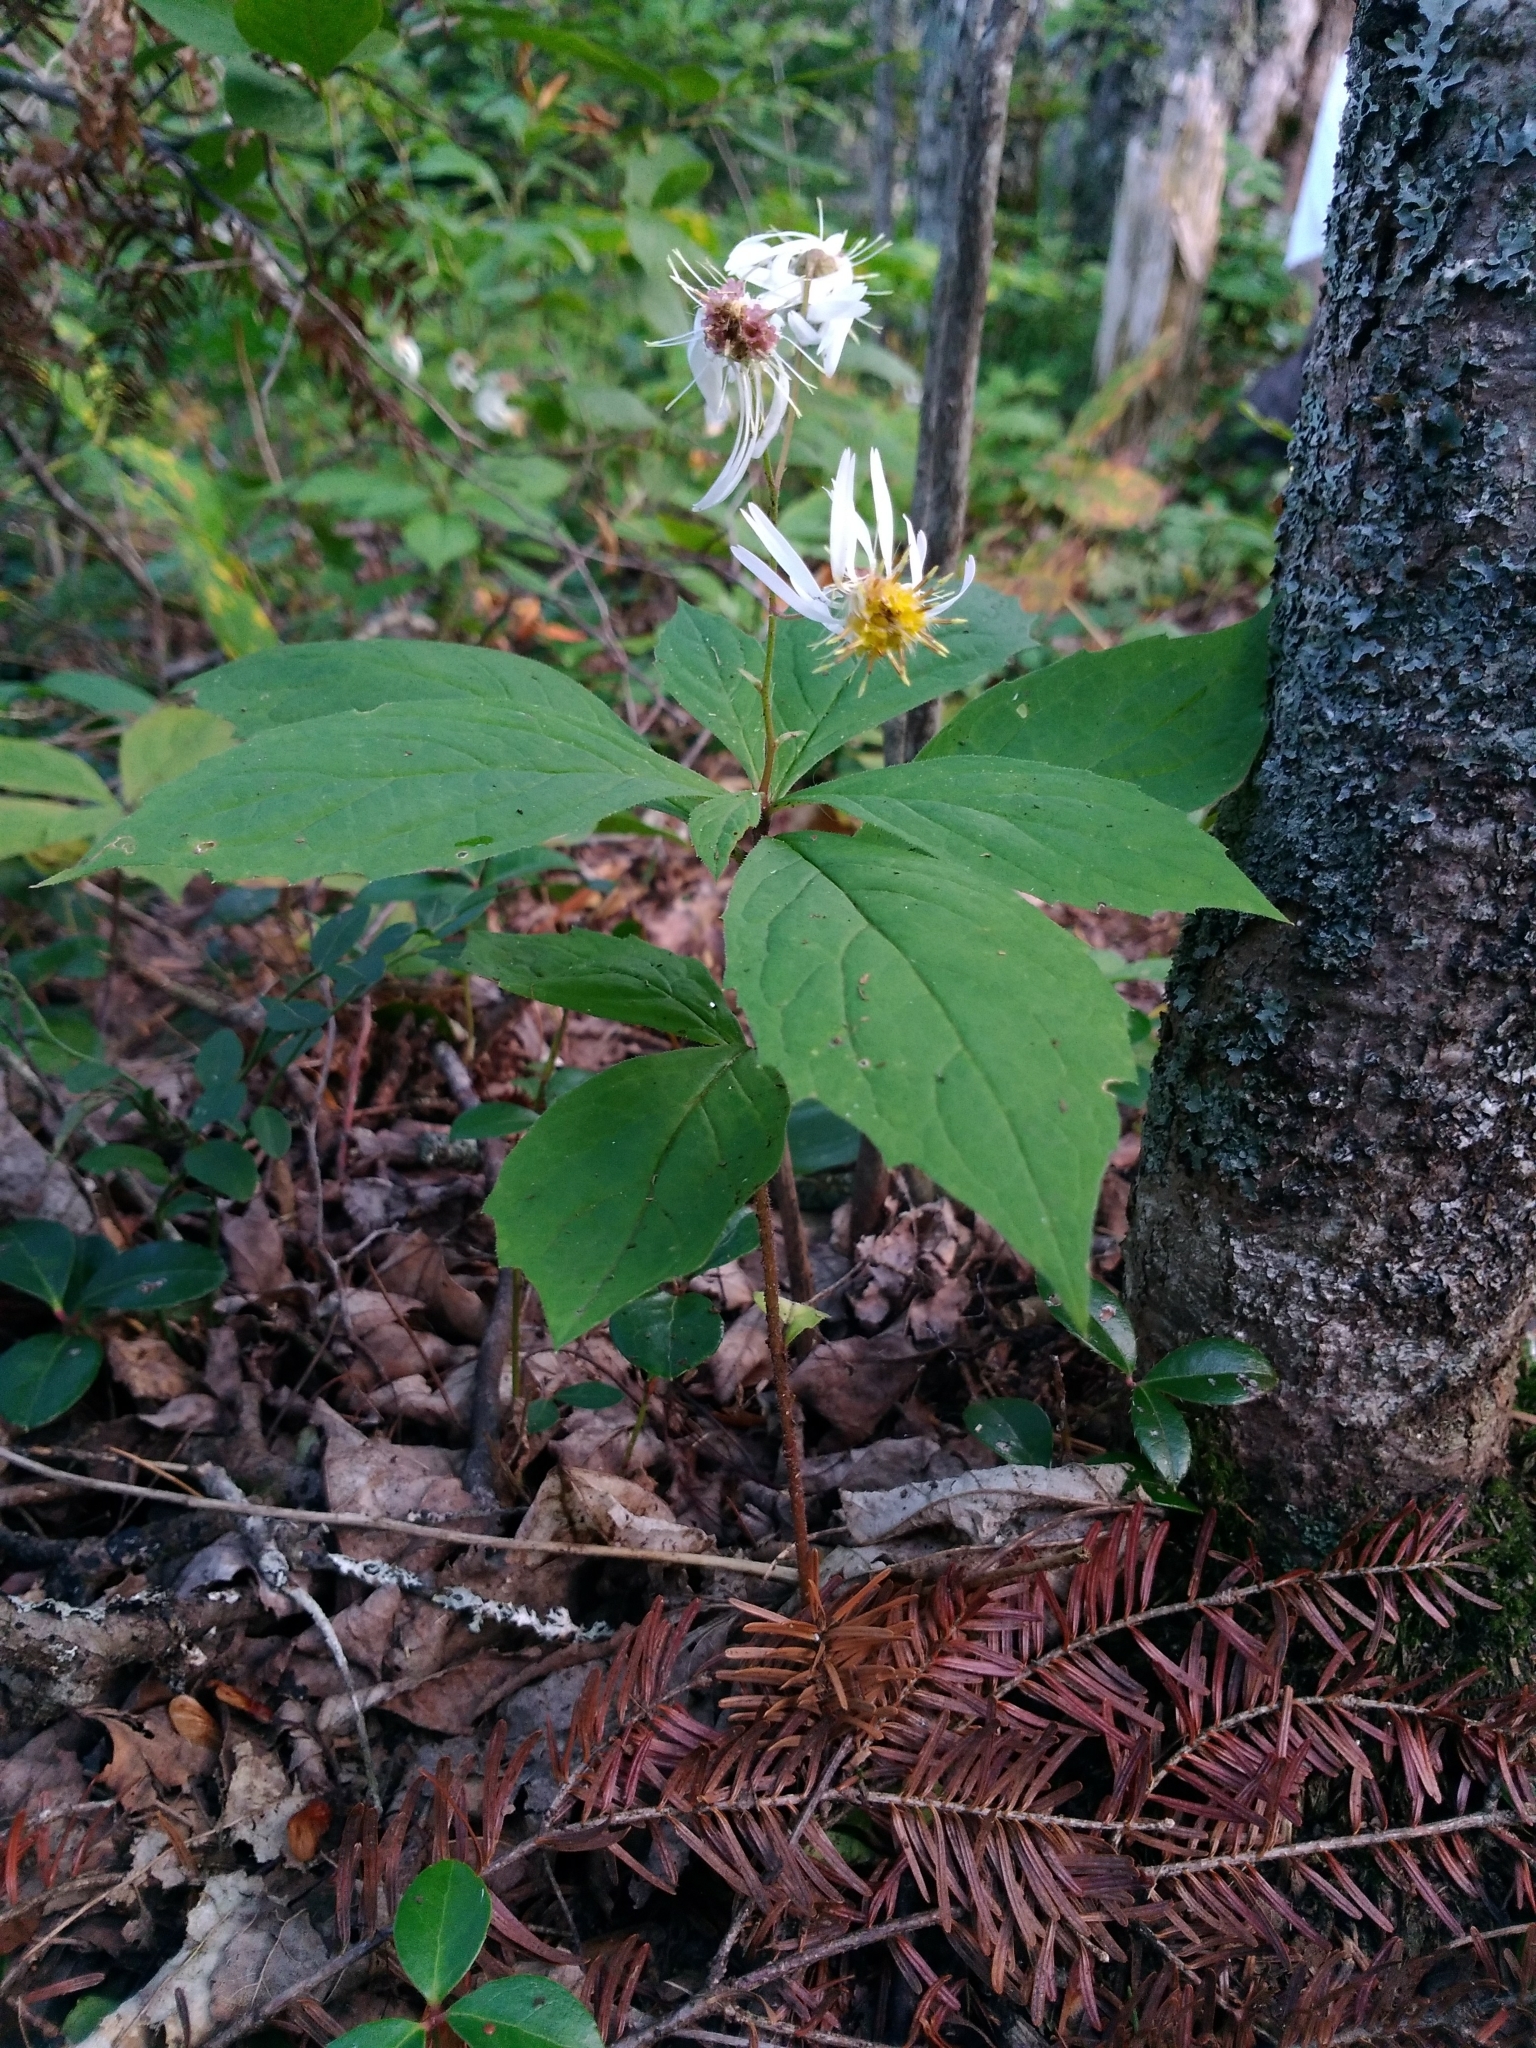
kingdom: Plantae
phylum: Tracheophyta
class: Magnoliopsida
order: Asterales
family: Asteraceae
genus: Oclemena
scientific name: Oclemena acuminata
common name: Mountain aster
